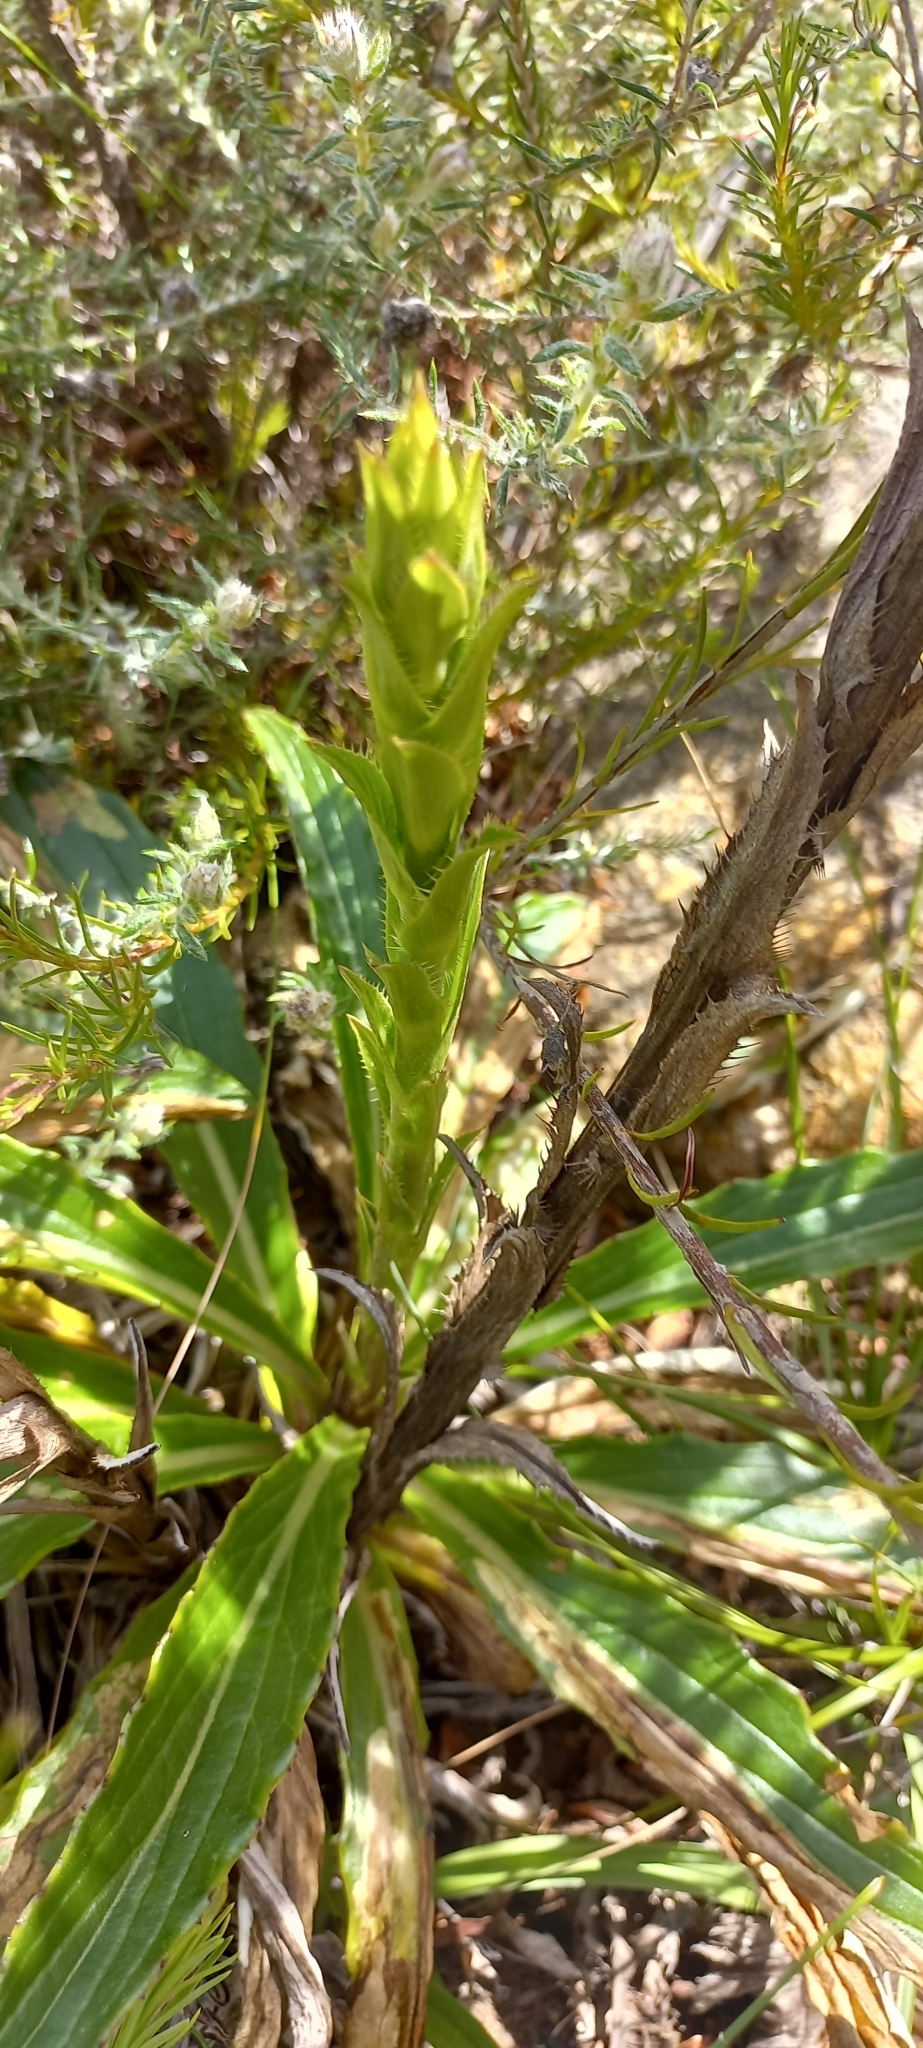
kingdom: Plantae
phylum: Tracheophyta
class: Magnoliopsida
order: Asterales
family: Asteraceae
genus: Berkheya
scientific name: Berkheya herbacea
